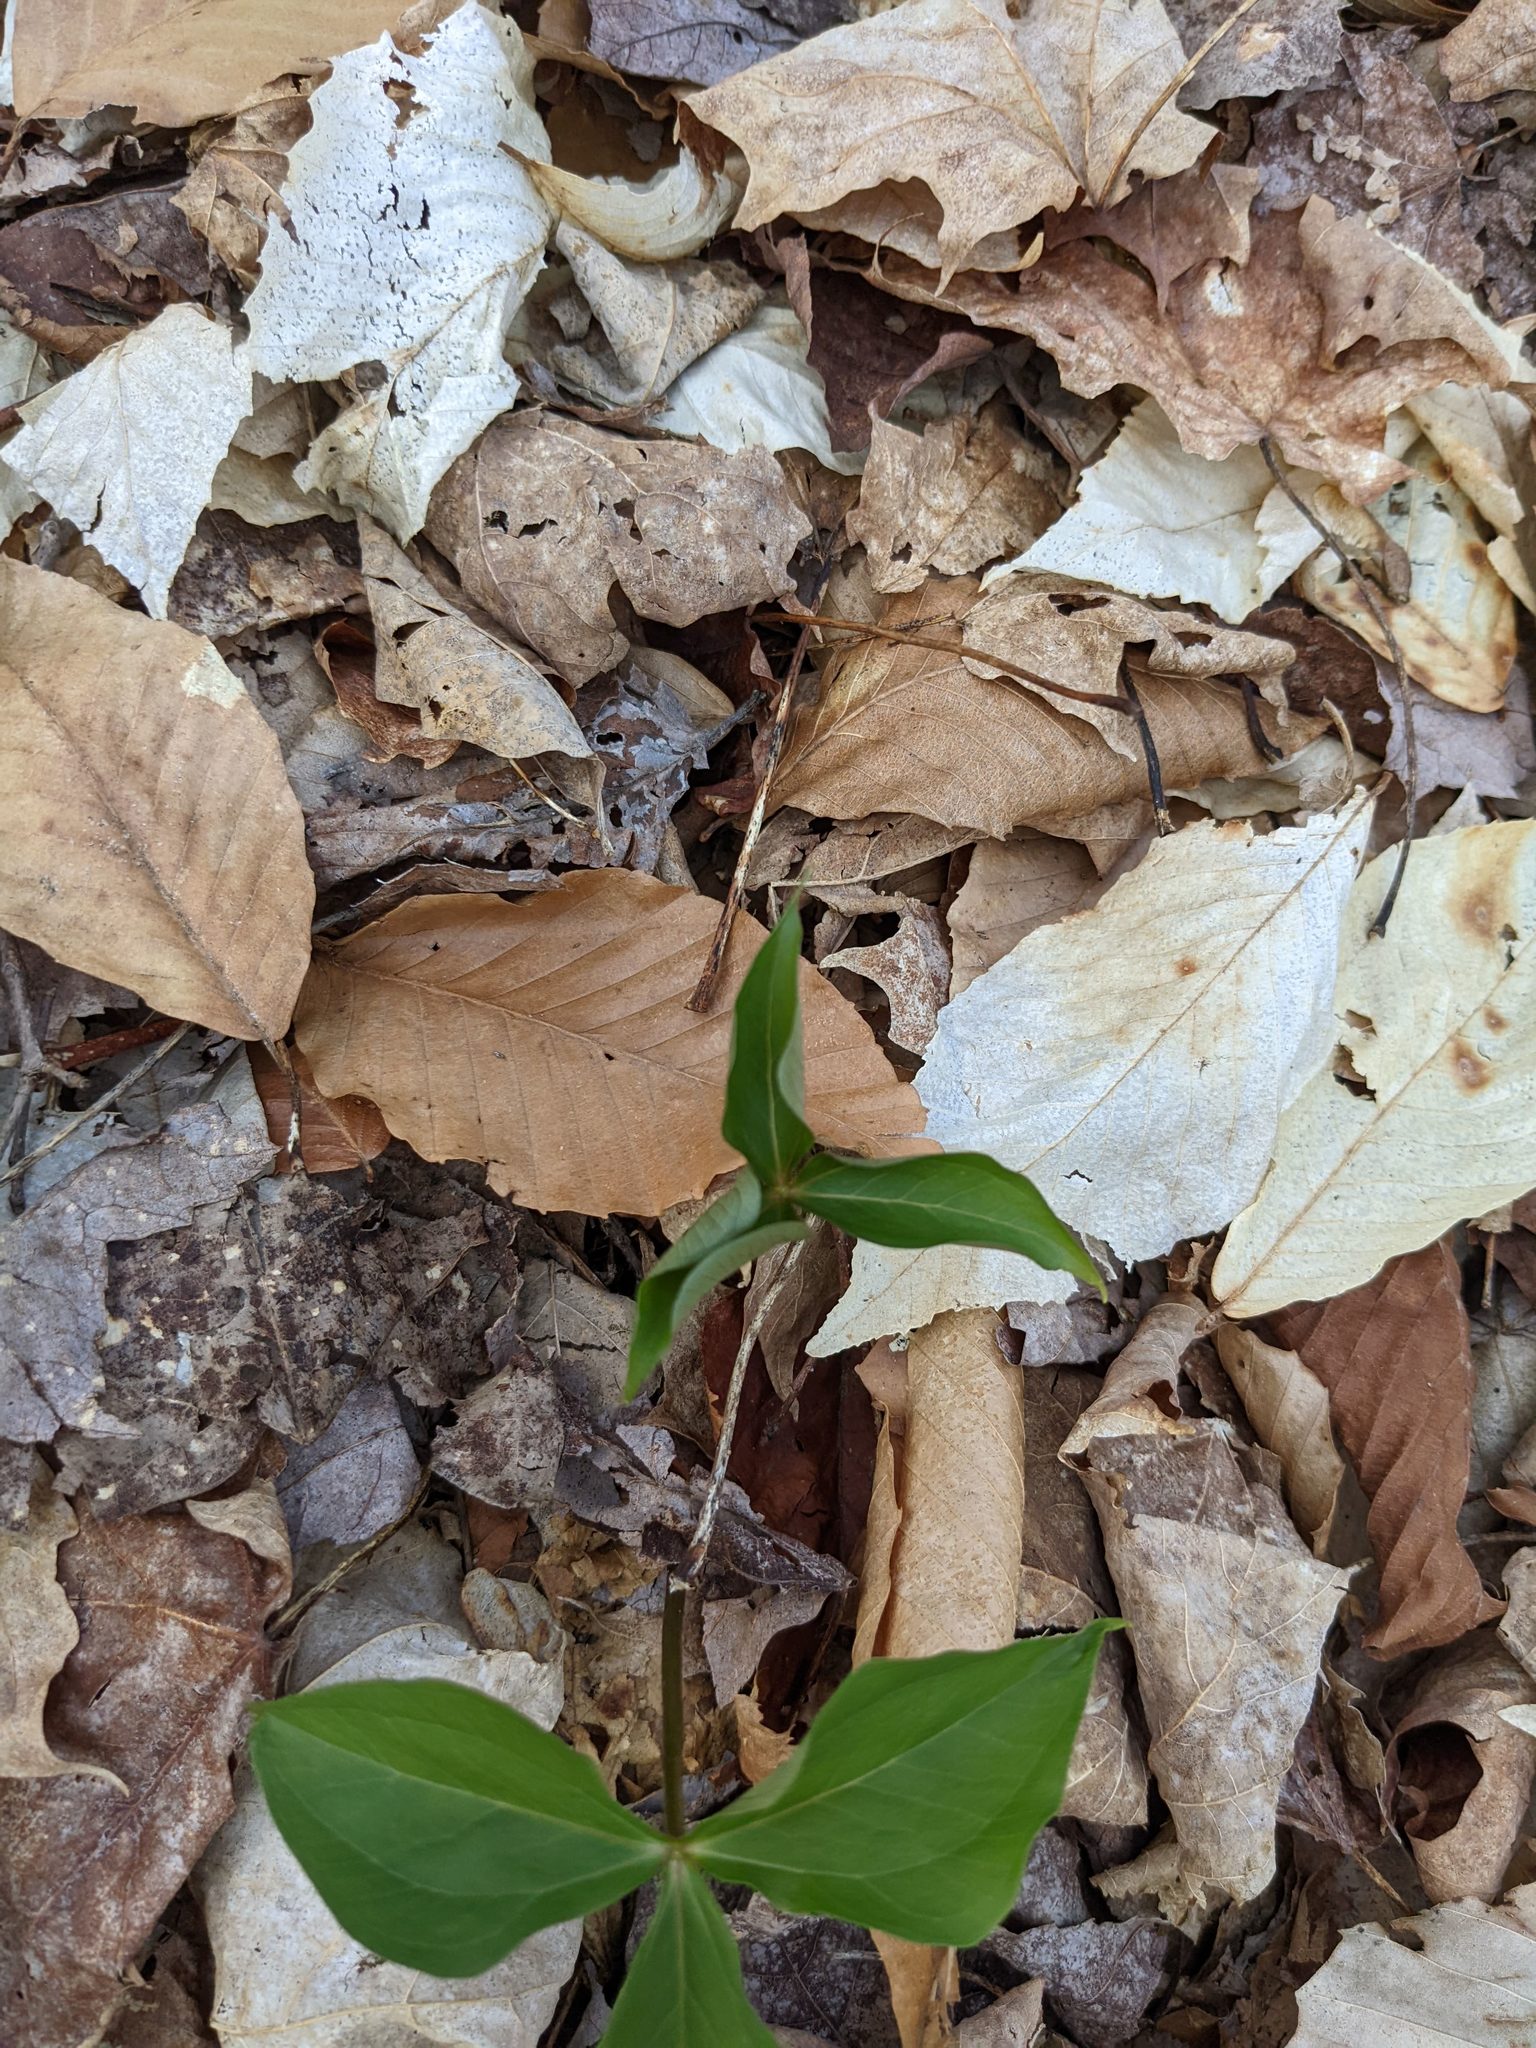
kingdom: Plantae
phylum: Tracheophyta
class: Magnoliopsida
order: Fagales
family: Fagaceae
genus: Fagus
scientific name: Fagus grandifolia
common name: American beech
